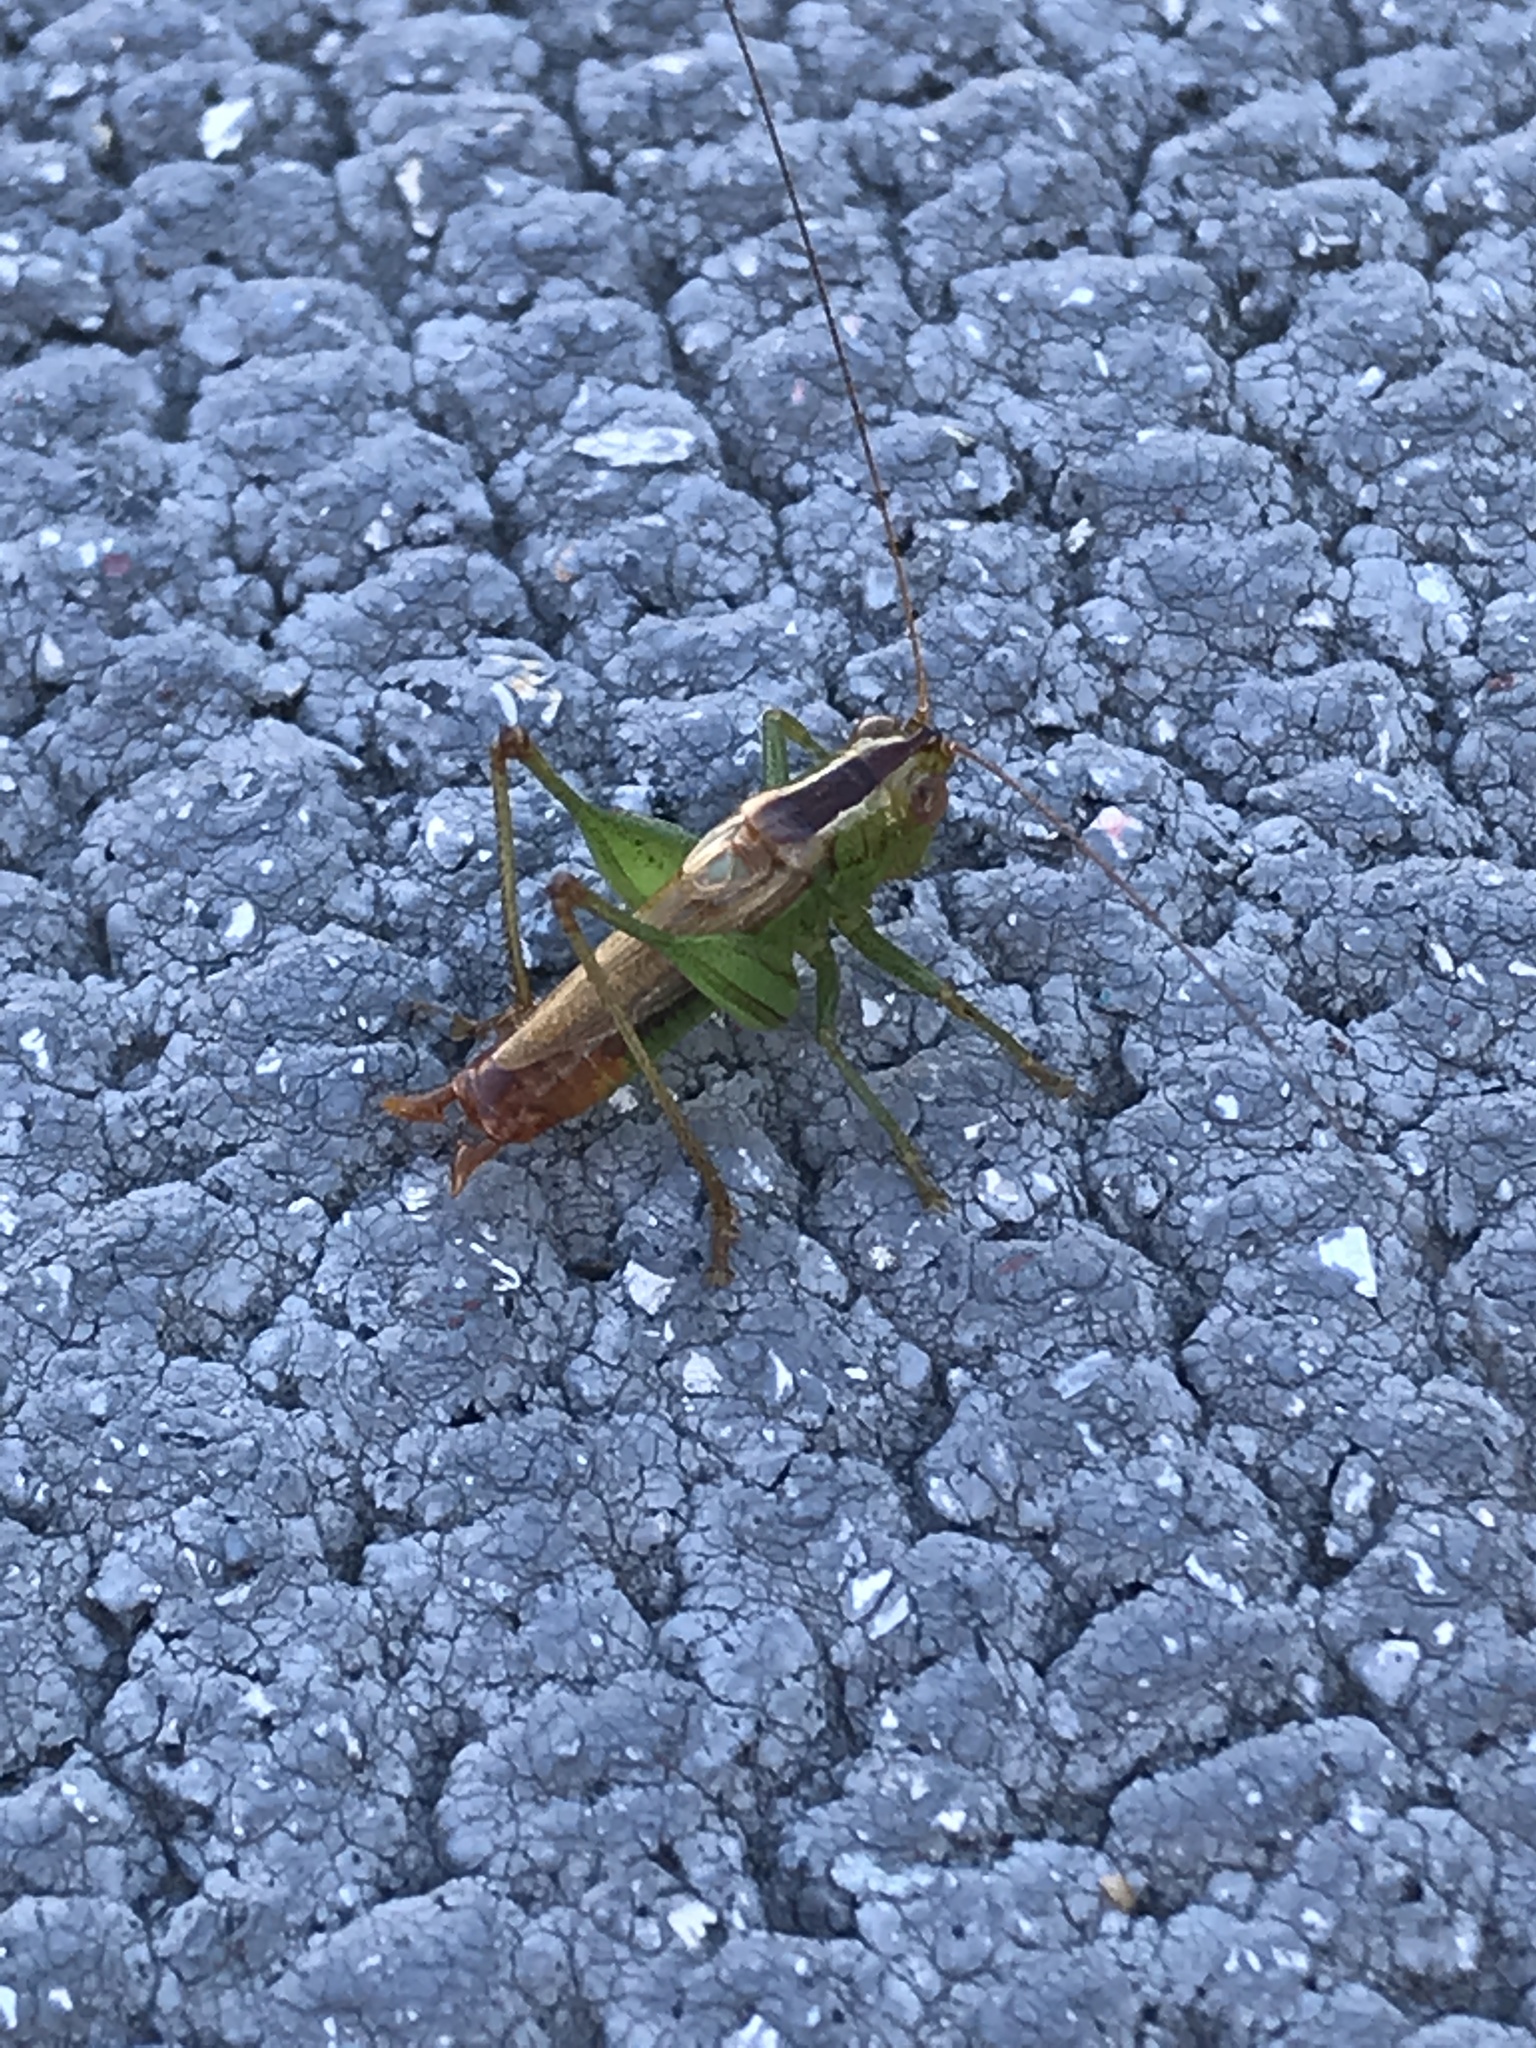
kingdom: Animalia
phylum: Arthropoda
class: Insecta
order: Orthoptera
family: Tettigoniidae
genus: Conocephalus
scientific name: Conocephalus brevipennis
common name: Short-winged meadow katydid
